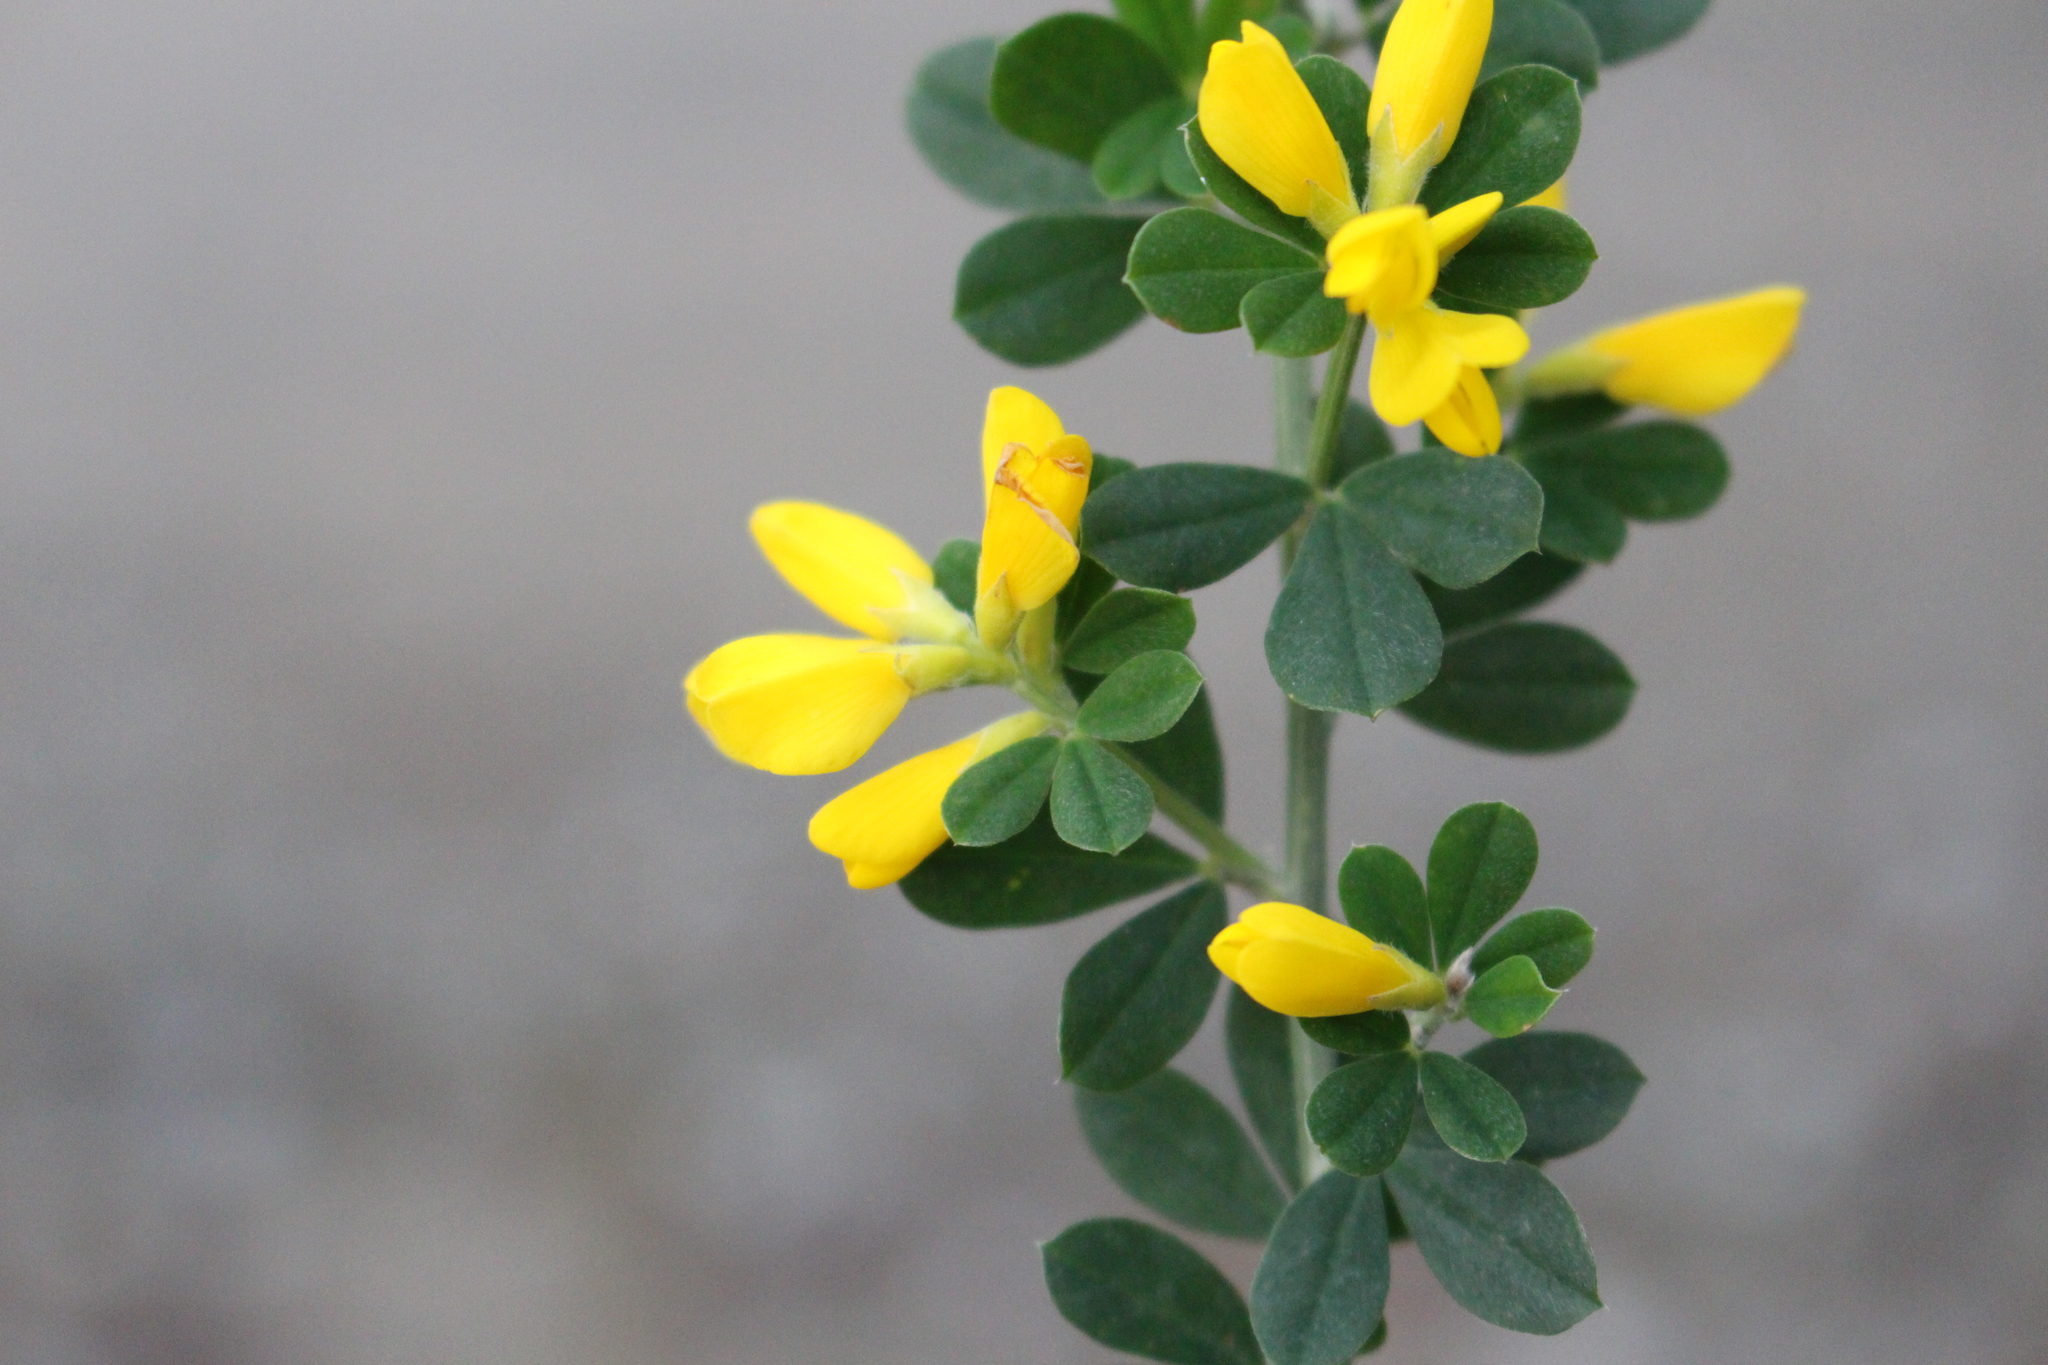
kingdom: Plantae
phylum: Tracheophyta
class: Magnoliopsida
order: Fabales
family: Fabaceae
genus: Genista
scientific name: Genista monspessulana
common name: Montpellier broom
